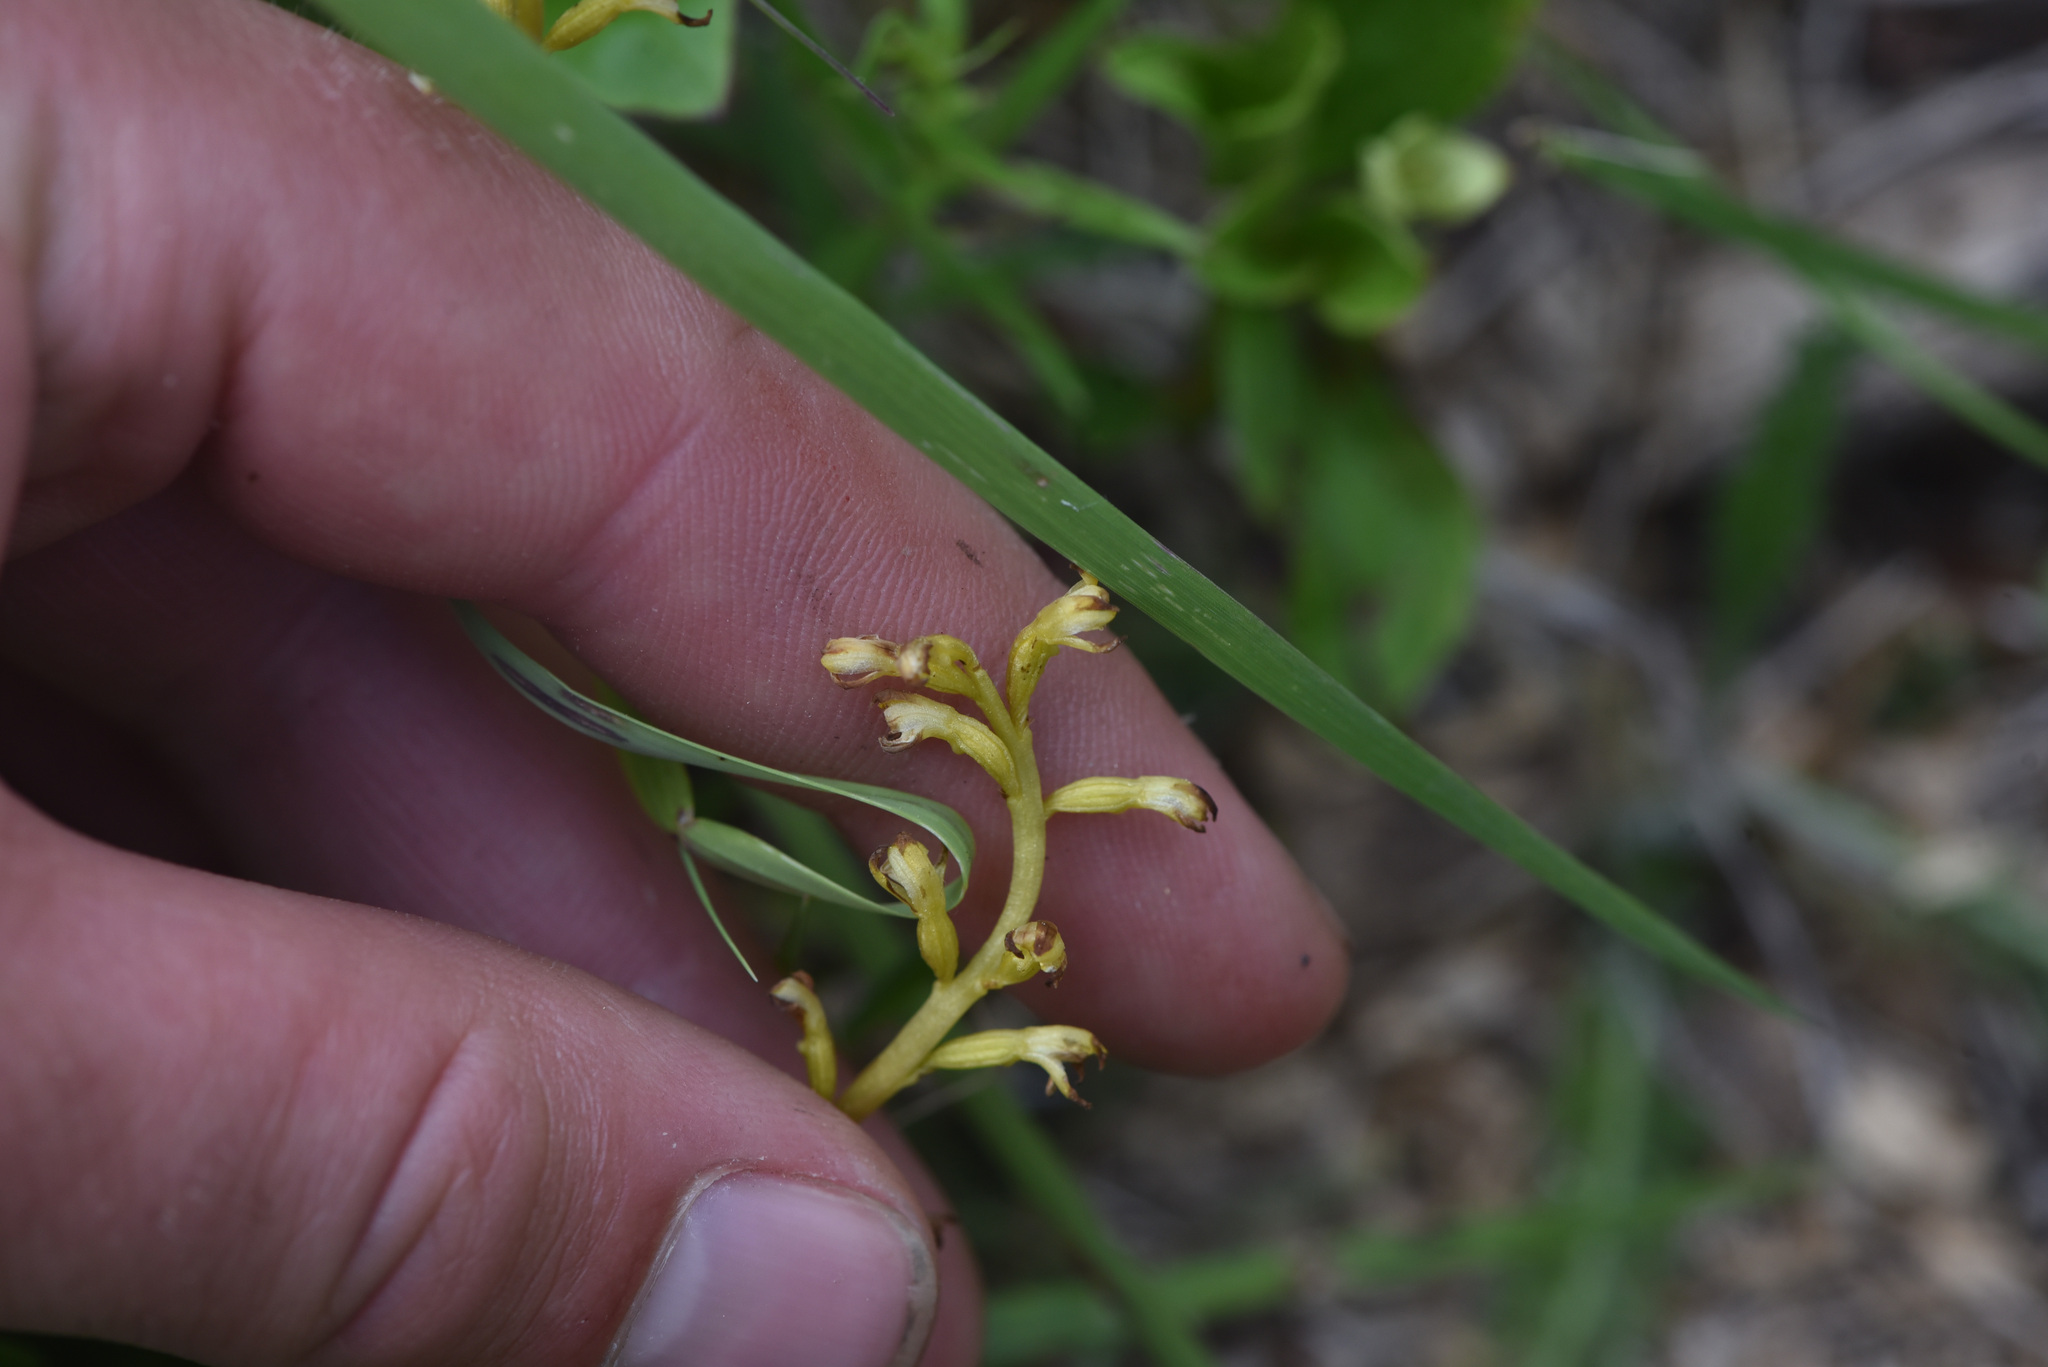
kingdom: Plantae
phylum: Tracheophyta
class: Liliopsida
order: Asparagales
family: Orchidaceae
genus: Corallorhiza
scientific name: Corallorhiza trifida
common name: Yellow coralroot
